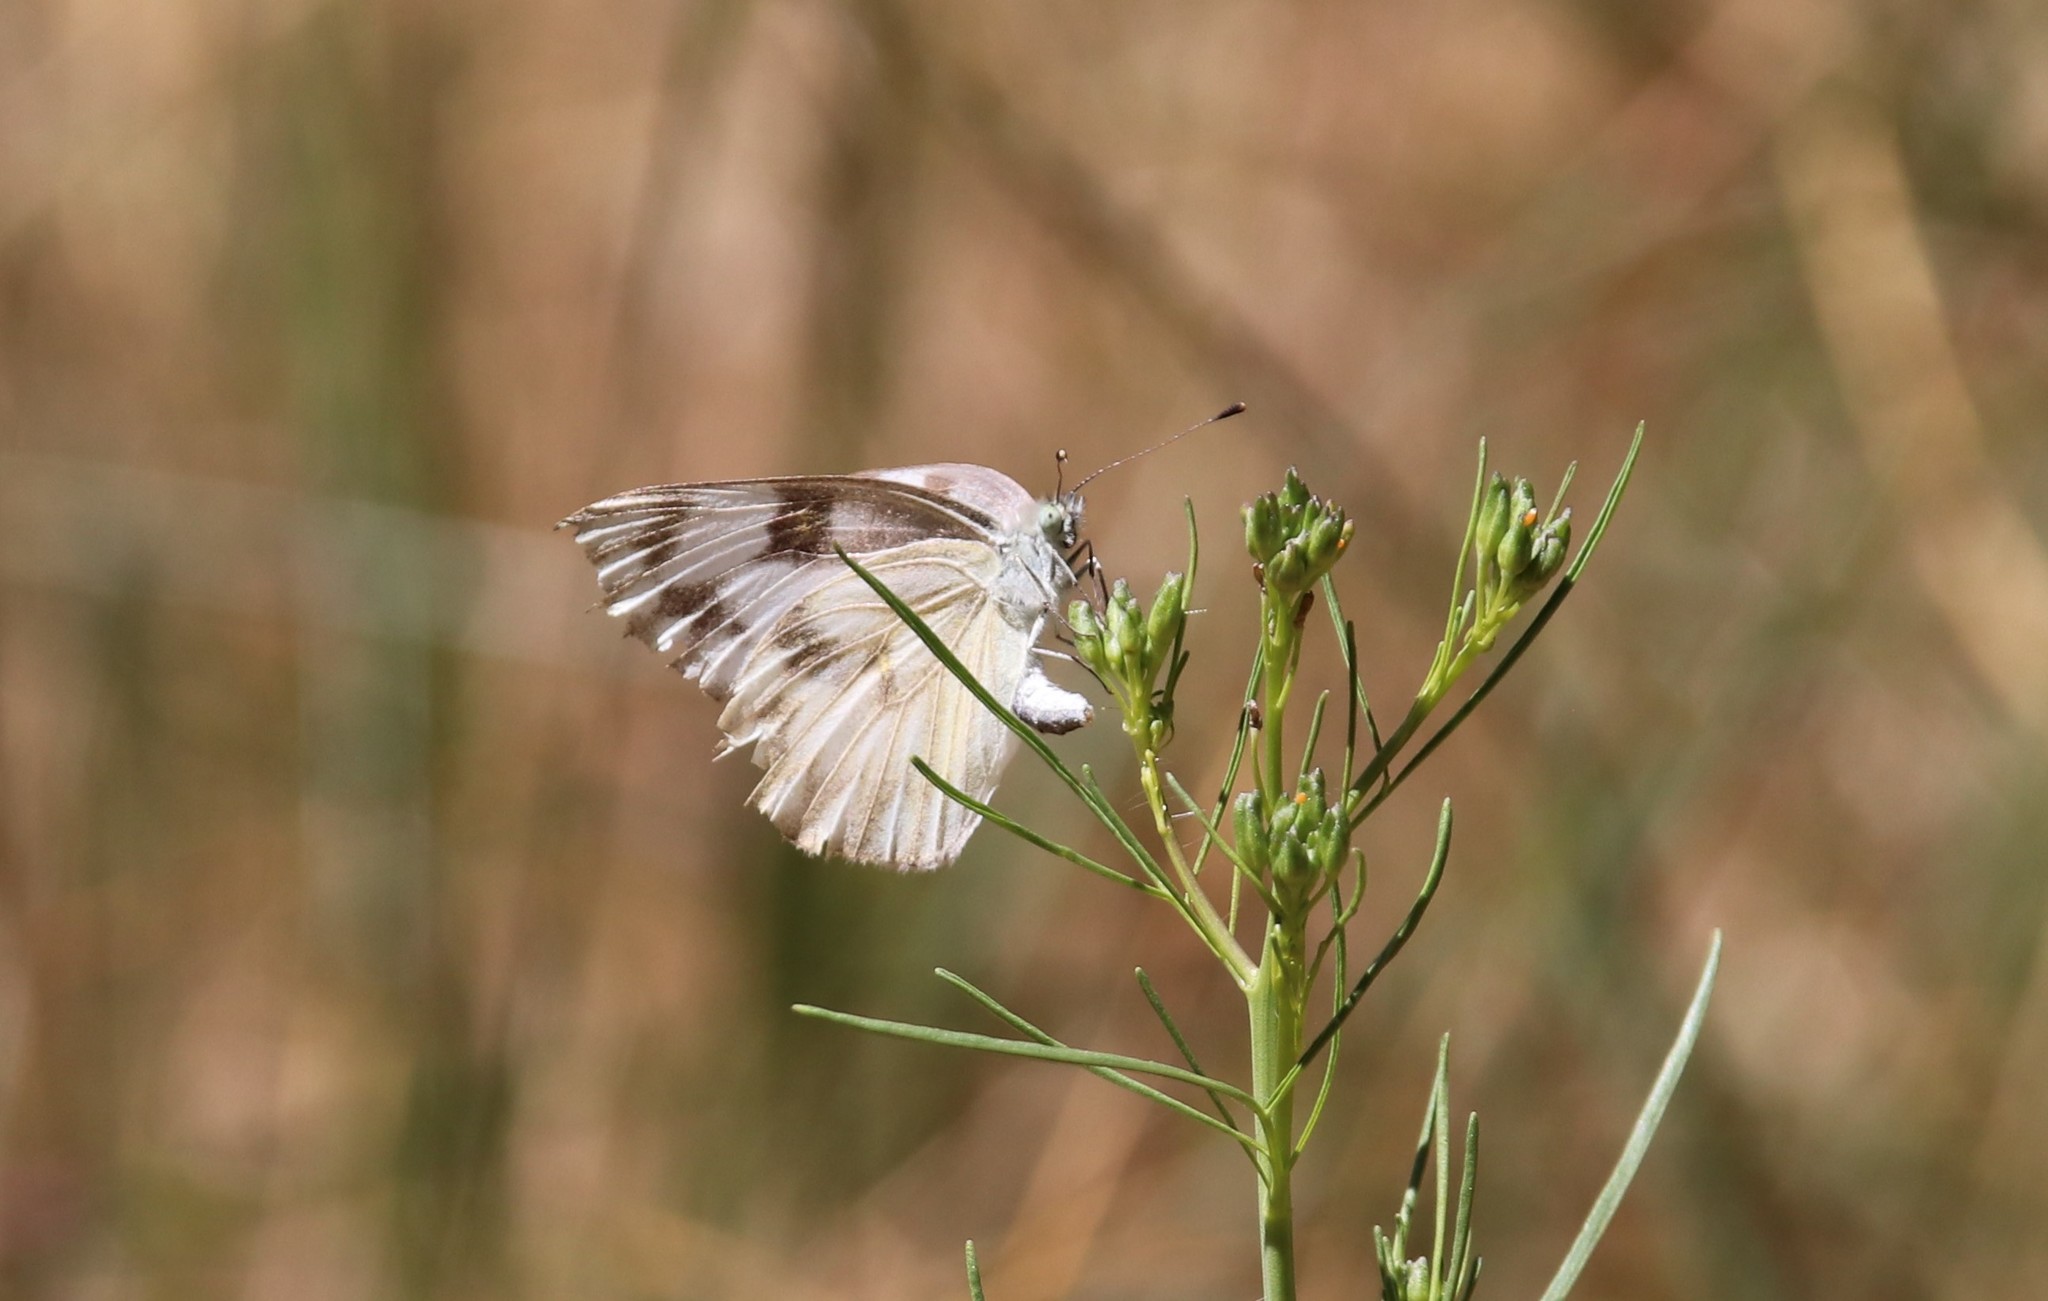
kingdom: Animalia
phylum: Arthropoda
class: Insecta
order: Lepidoptera
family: Pieridae
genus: Pontia
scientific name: Pontia protodice
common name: Checkered white
